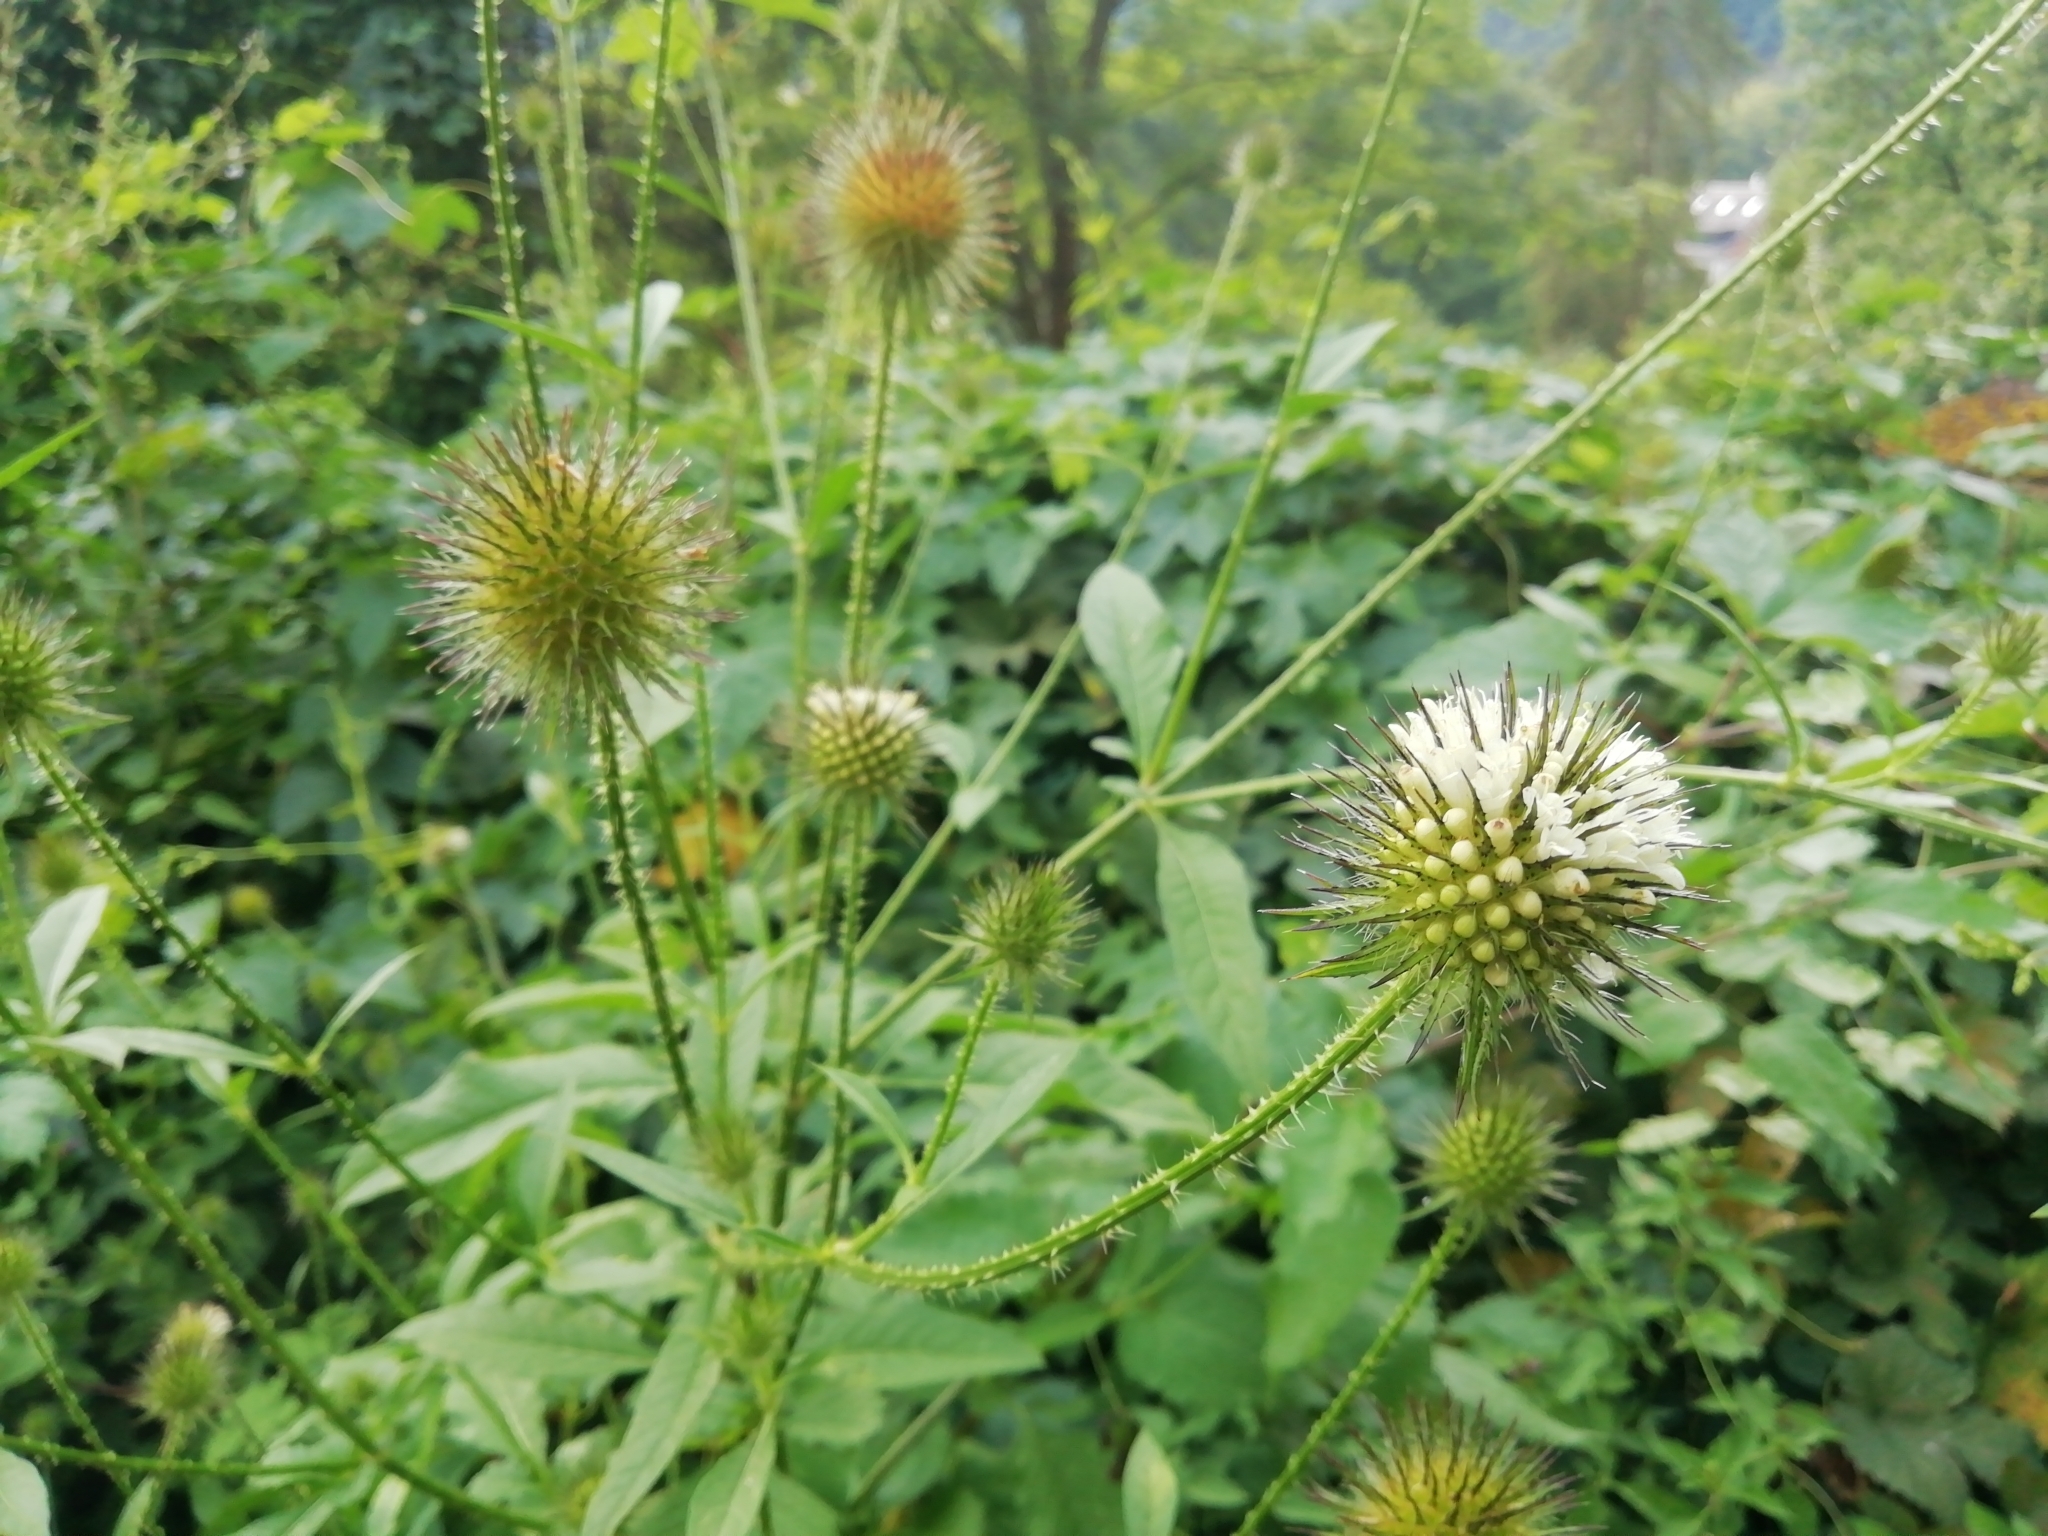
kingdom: Plantae
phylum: Tracheophyta
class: Magnoliopsida
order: Dipsacales
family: Caprifoliaceae
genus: Dipsacus
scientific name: Dipsacus strigosus
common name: Yellow-flowered teasel
